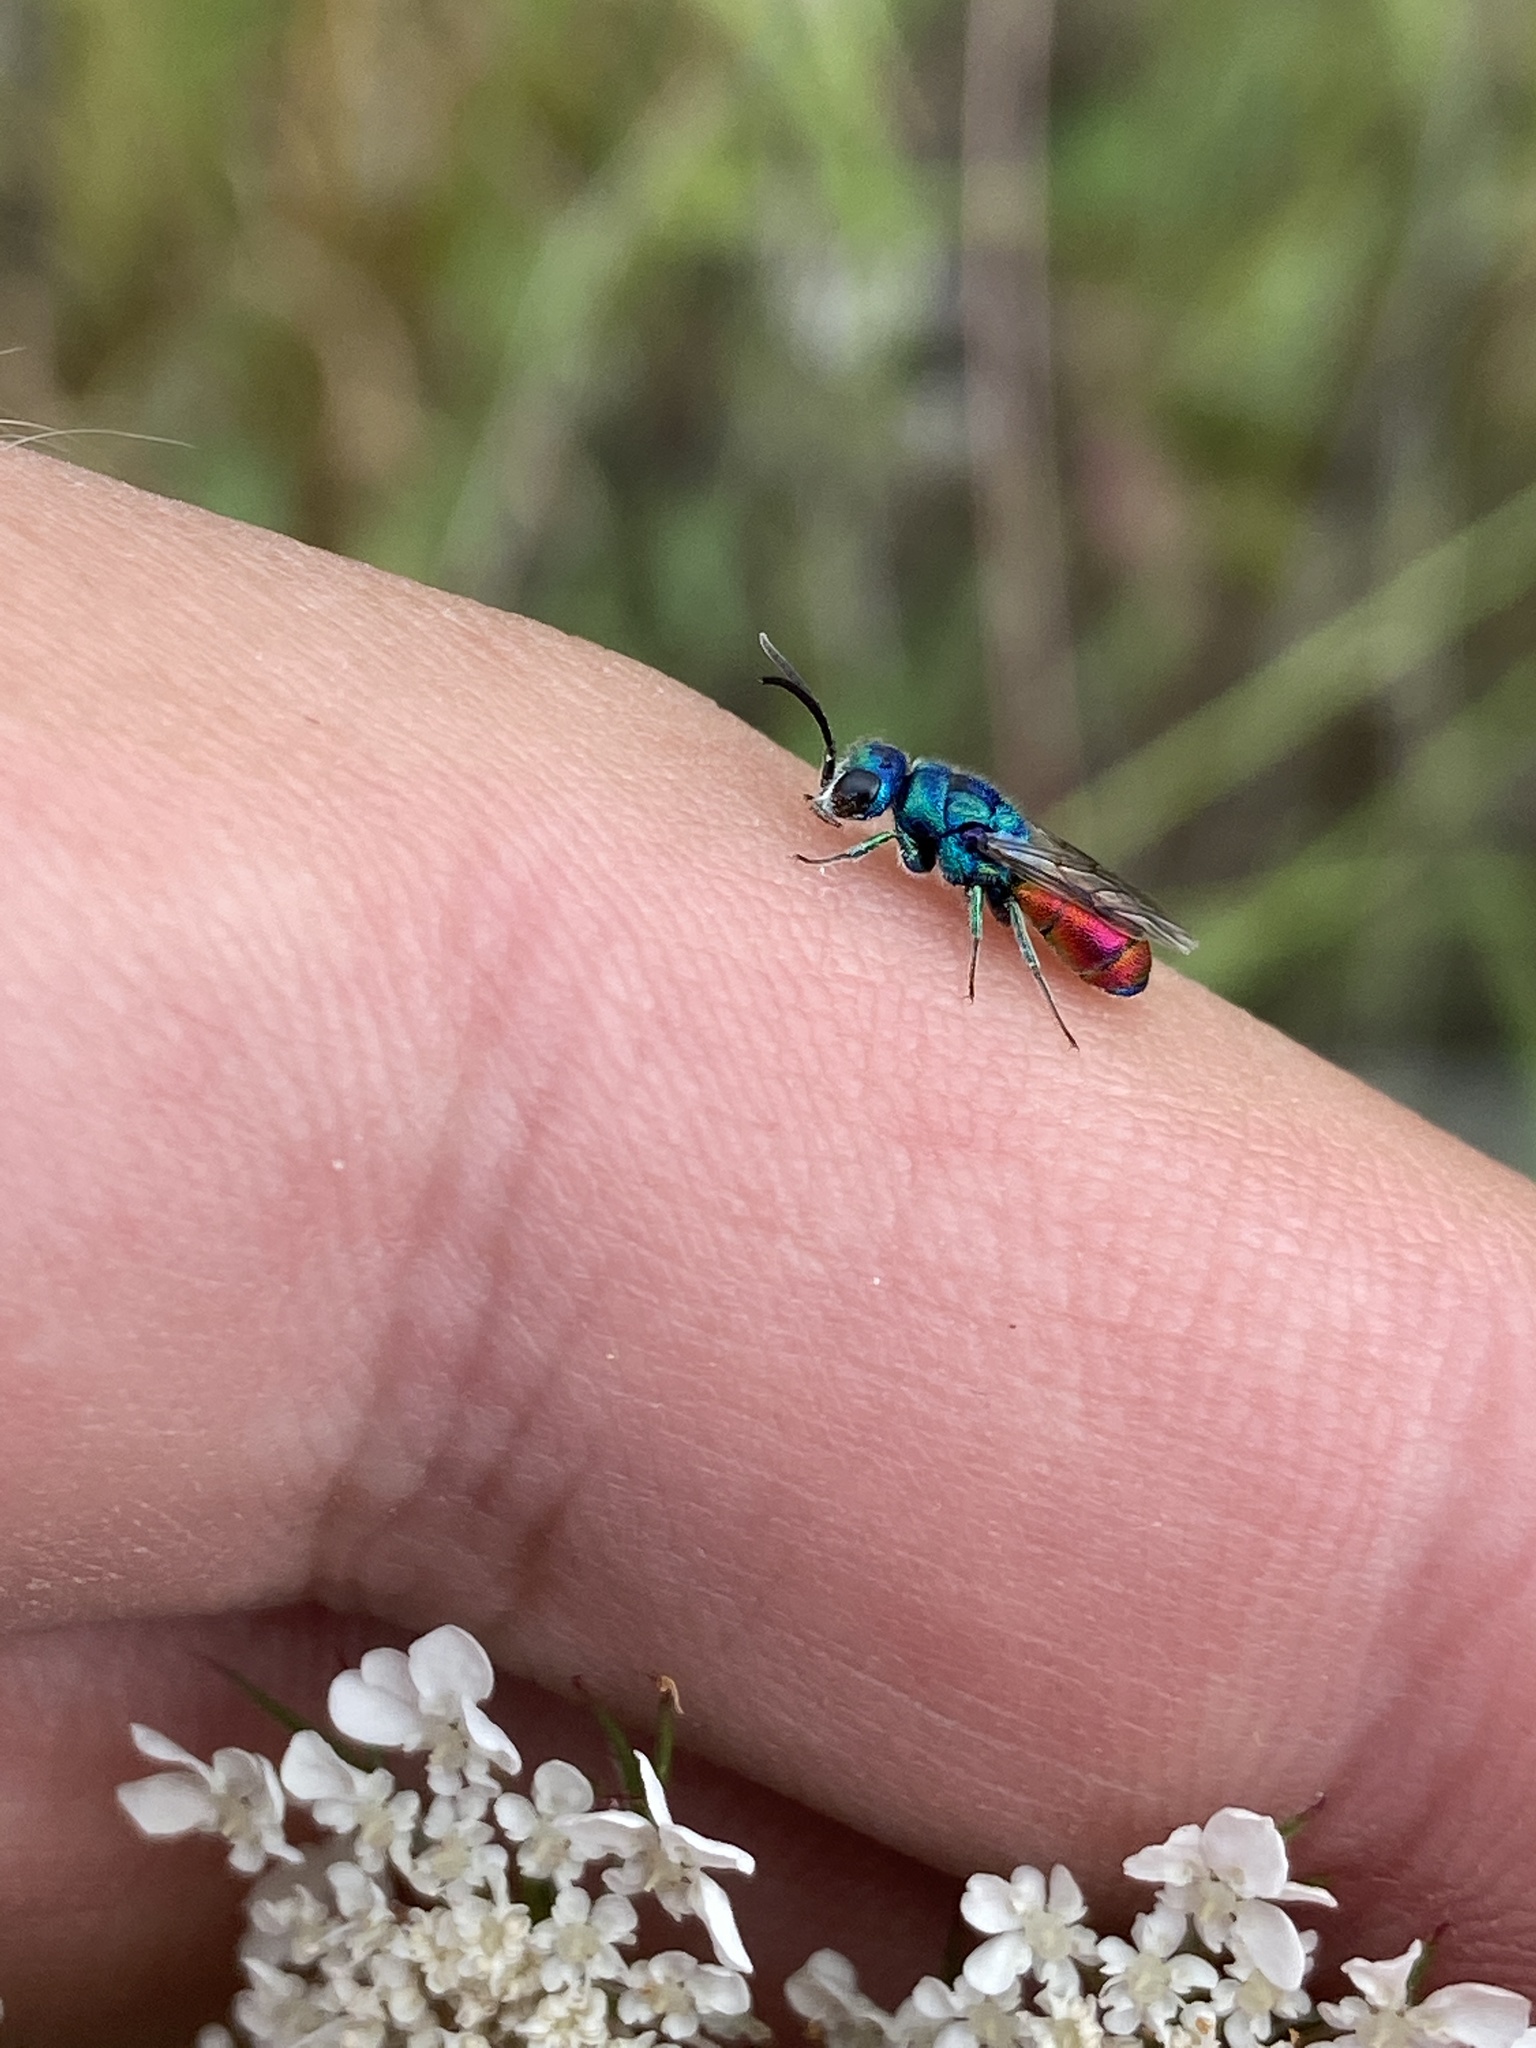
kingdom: Animalia
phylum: Arthropoda
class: Insecta
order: Hymenoptera
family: Chrysididae
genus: Chrysis
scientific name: Chrysis analis
